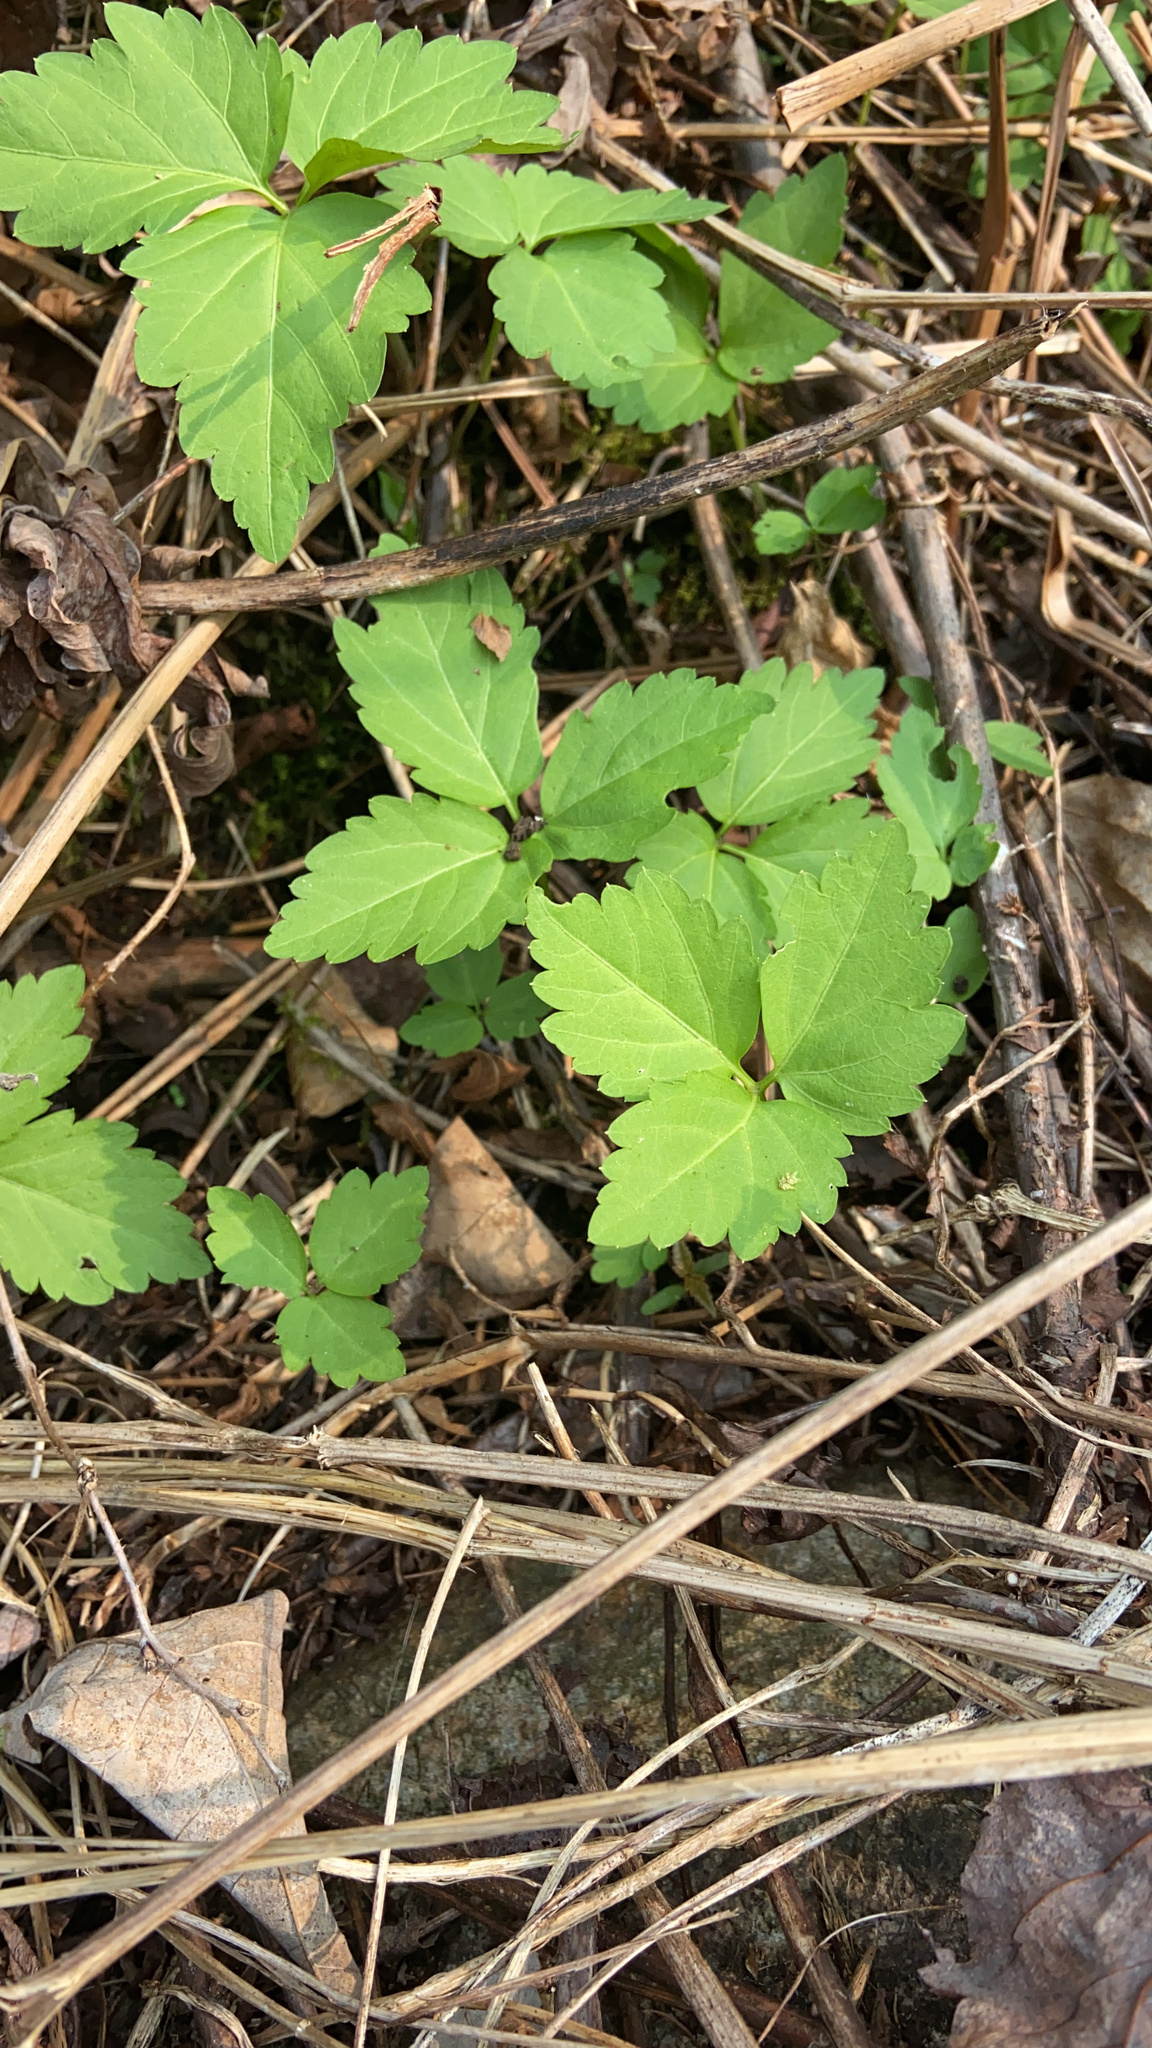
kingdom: Plantae
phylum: Tracheophyta
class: Magnoliopsida
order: Brassicales
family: Brassicaceae
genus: Cardamine
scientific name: Cardamine diphylla
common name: Broad-leaved toothwort
